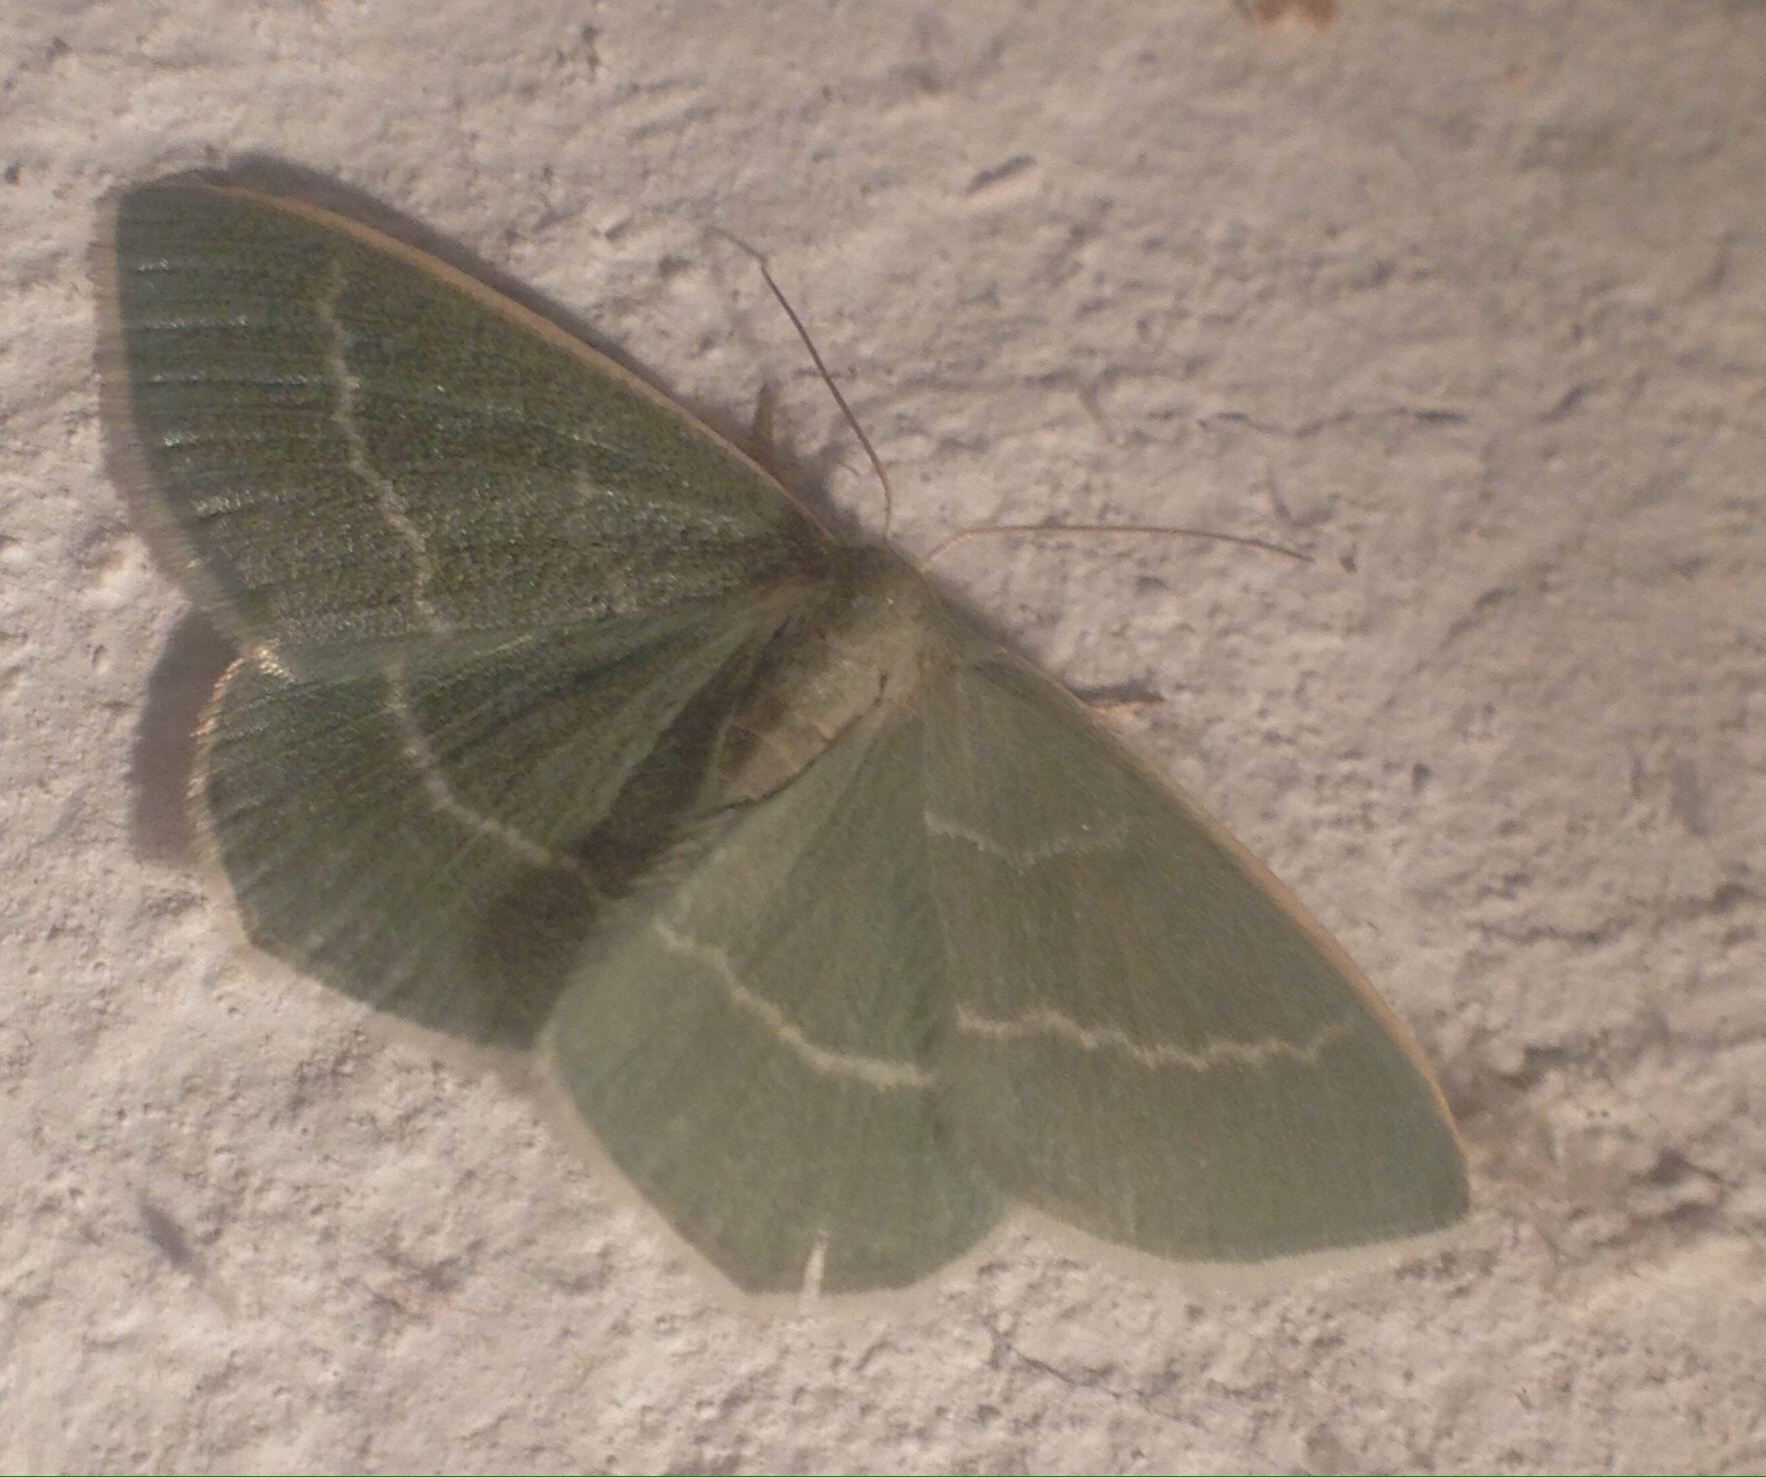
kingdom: Animalia
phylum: Arthropoda
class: Insecta
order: Lepidoptera
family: Geometridae
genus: Chlorissa
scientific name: Chlorissa viridata
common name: Small grass emerald
